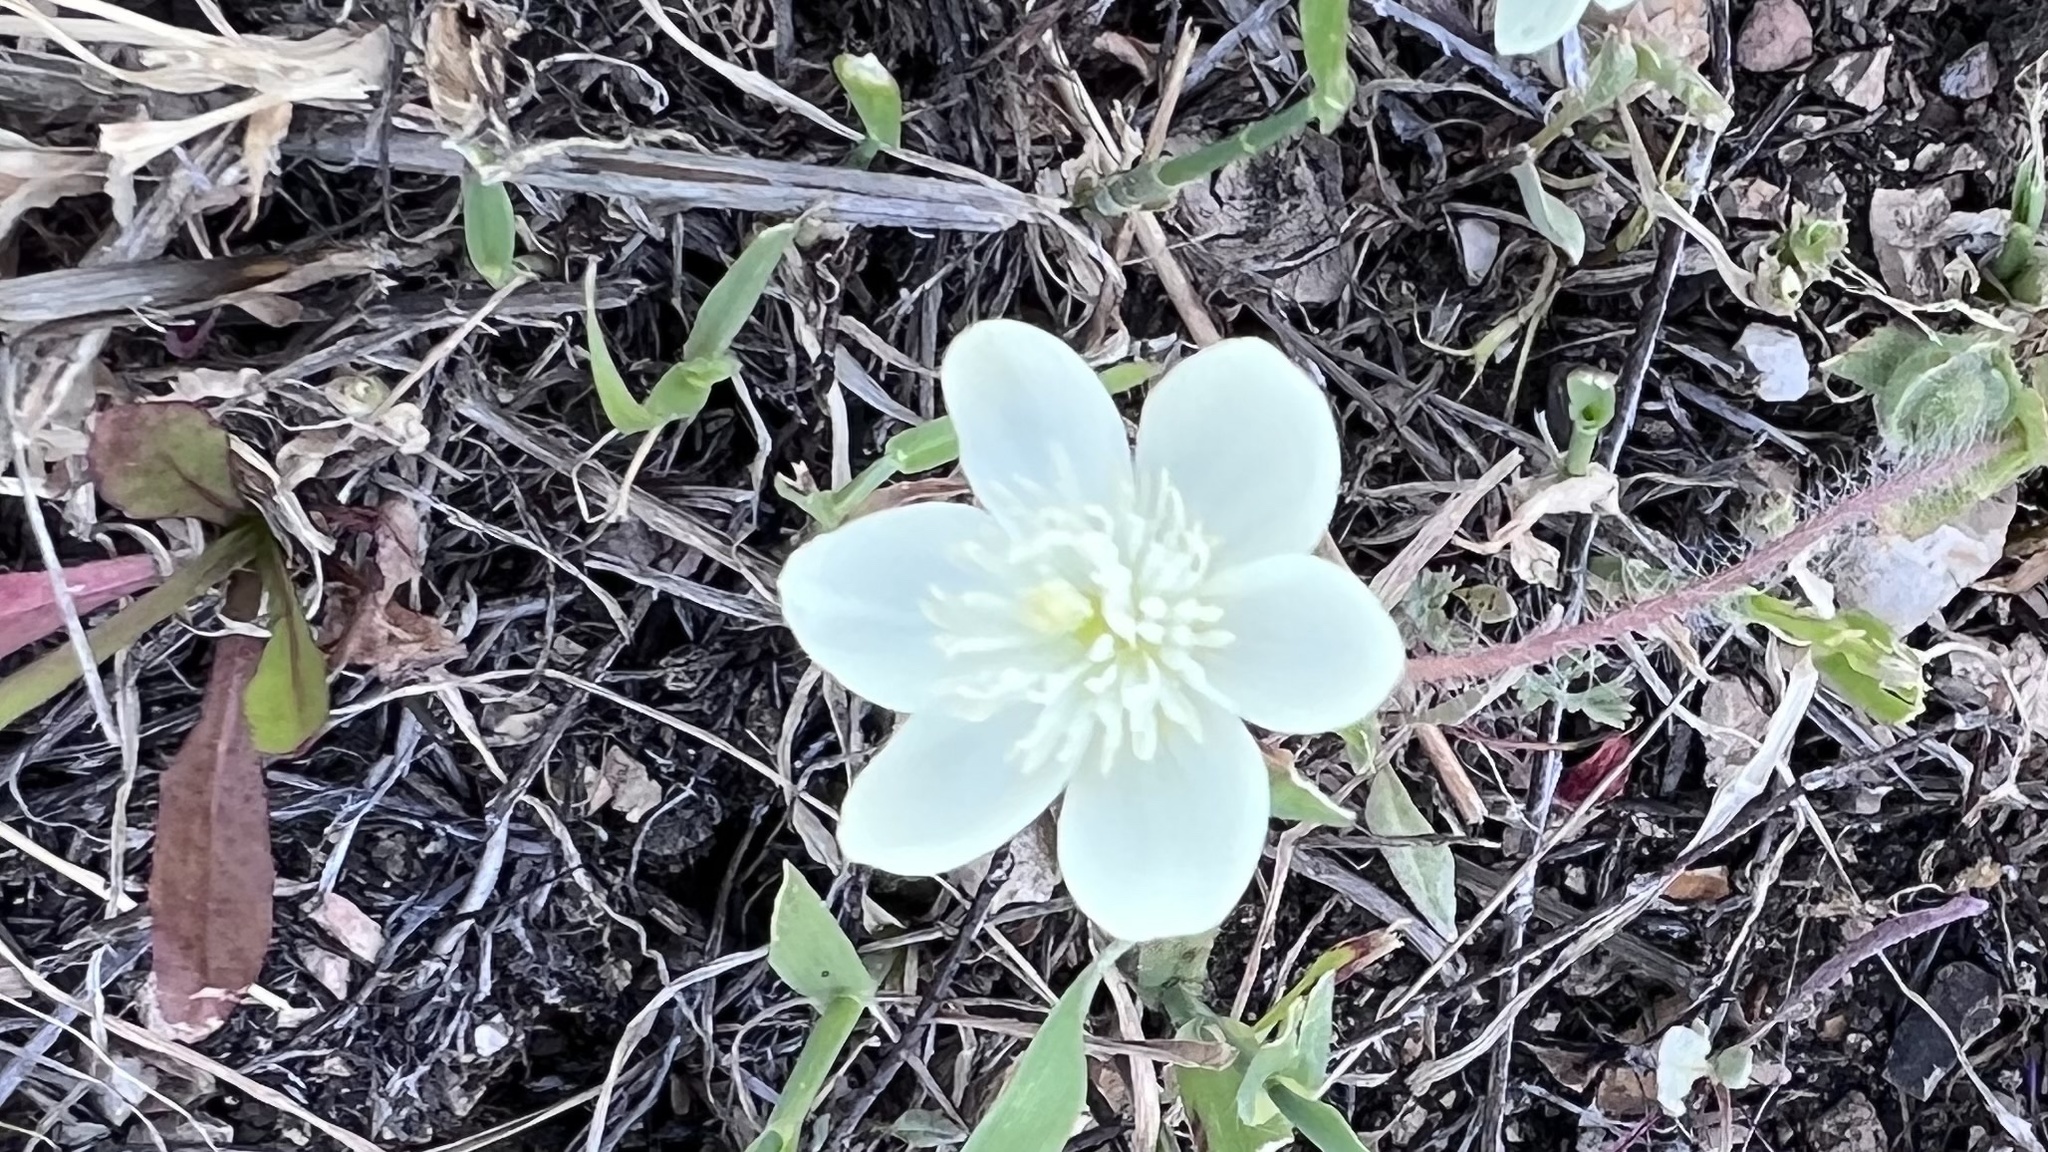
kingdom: Plantae
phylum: Tracheophyta
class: Magnoliopsida
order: Ranunculales
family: Papaveraceae
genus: Platystemon
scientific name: Platystemon californicus
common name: Cream-cups
